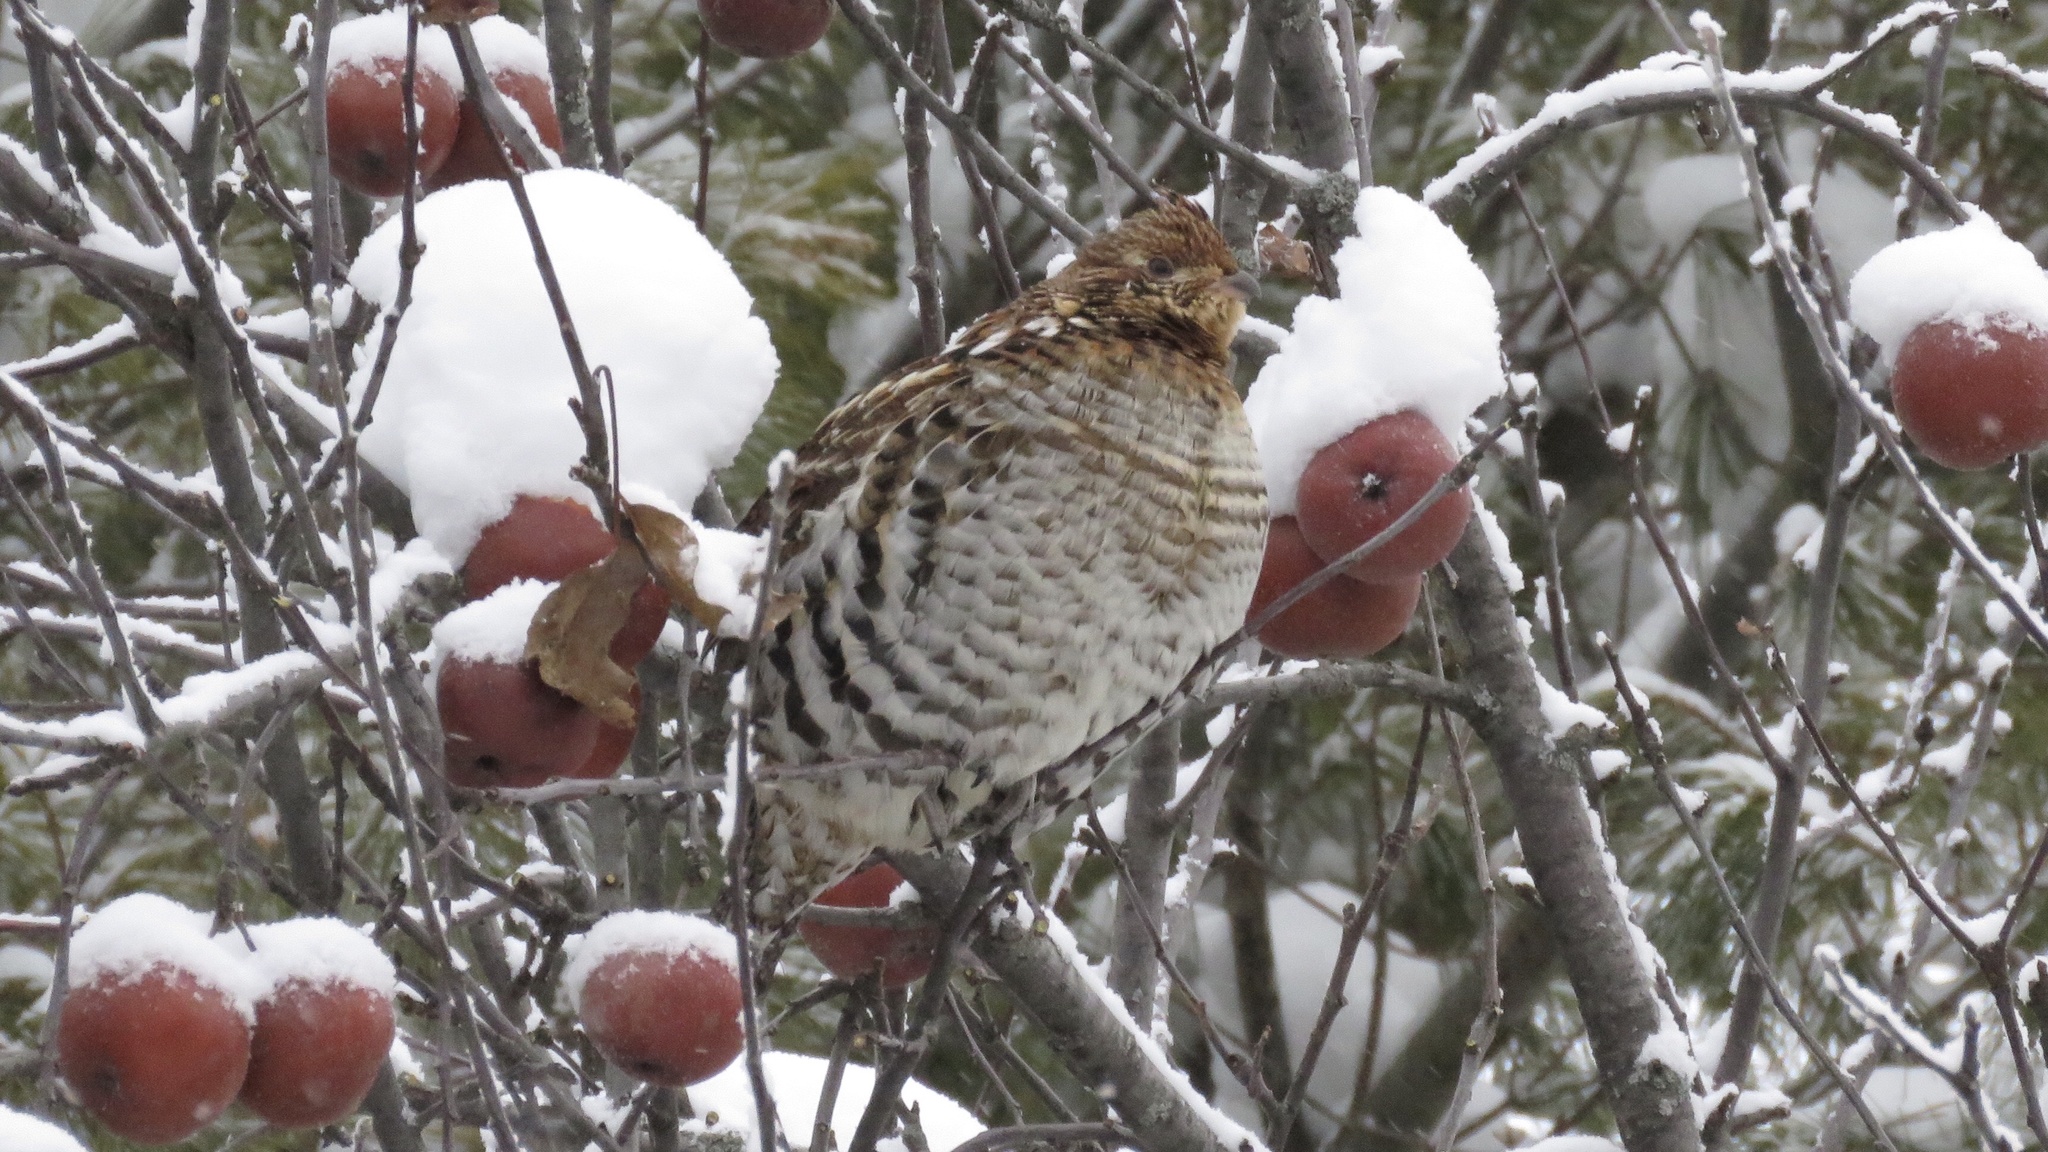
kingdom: Animalia
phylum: Chordata
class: Aves
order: Galliformes
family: Phasianidae
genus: Bonasa
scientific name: Bonasa umbellus
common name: Ruffed grouse
